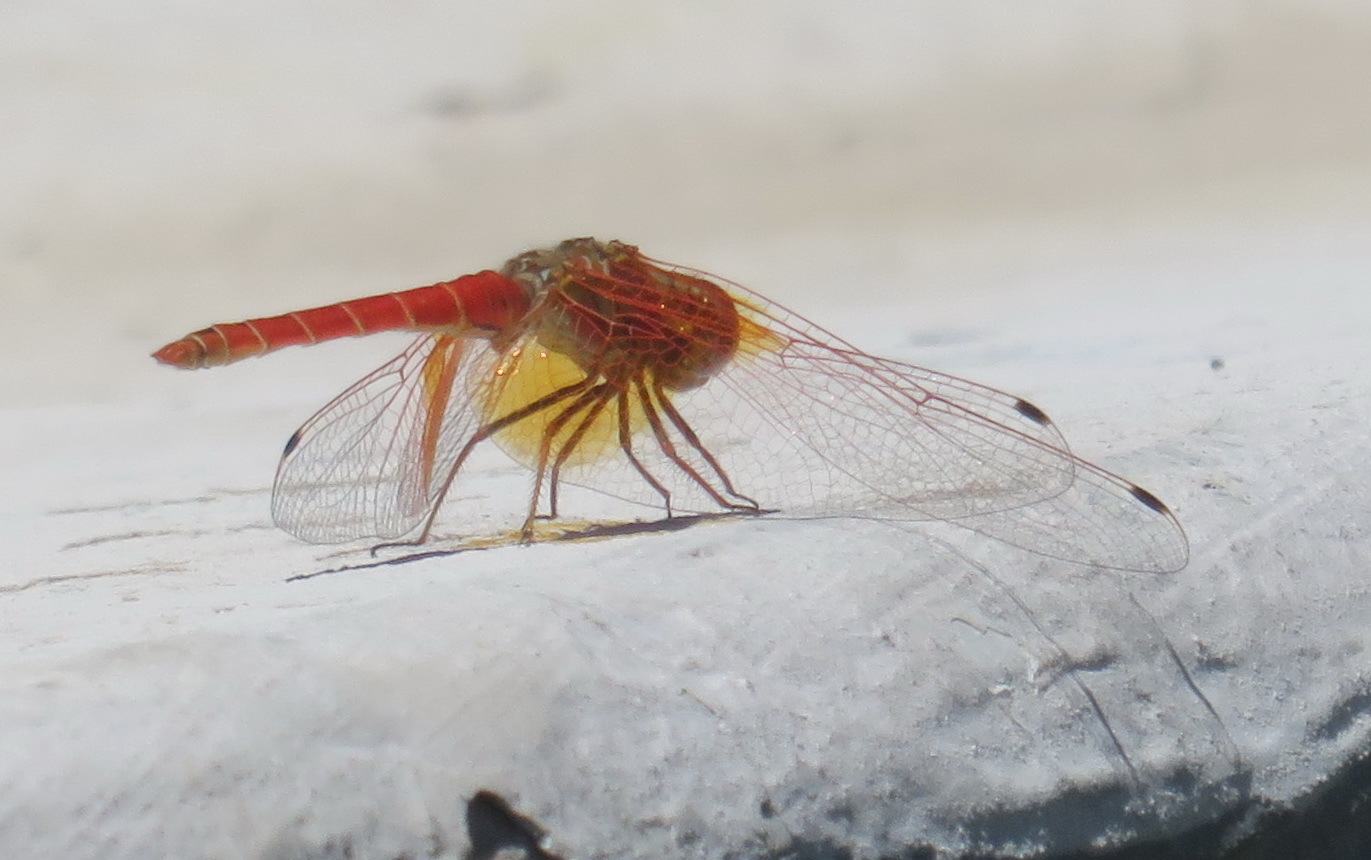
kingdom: Animalia
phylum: Arthropoda
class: Insecta
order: Odonata
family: Libellulidae
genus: Trithemis
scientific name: Trithemis kirbyi
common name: Kirby's dropwing
